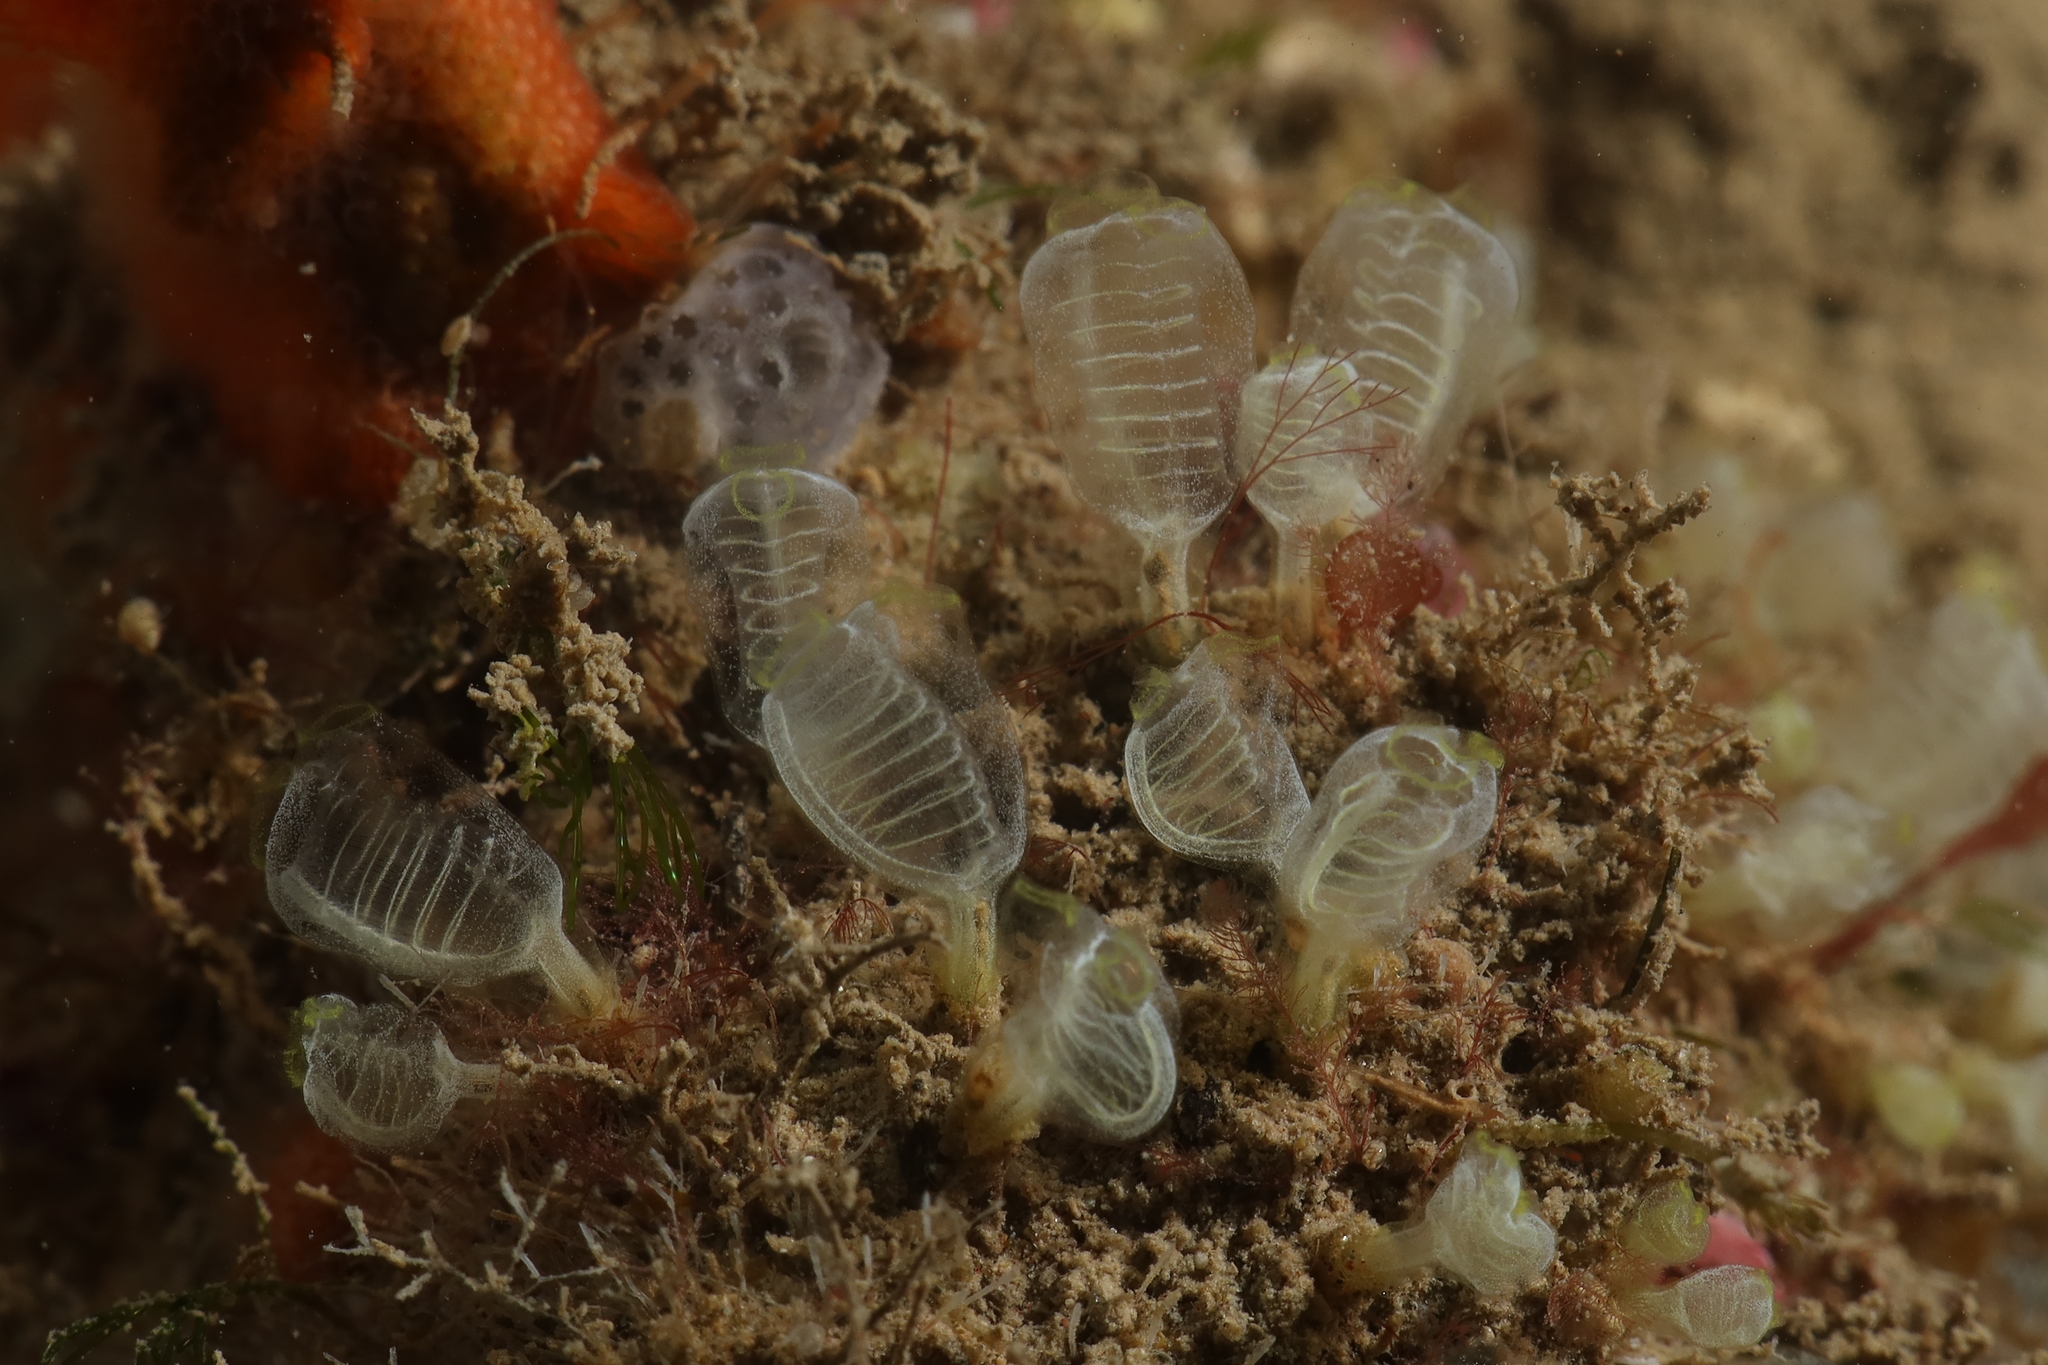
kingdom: Animalia
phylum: Chordata
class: Ascidiacea
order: Aplousobranchia
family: Clavelinidae
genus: Pycnoclavella
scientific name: Pycnoclavella nana
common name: Pin-head squirt
